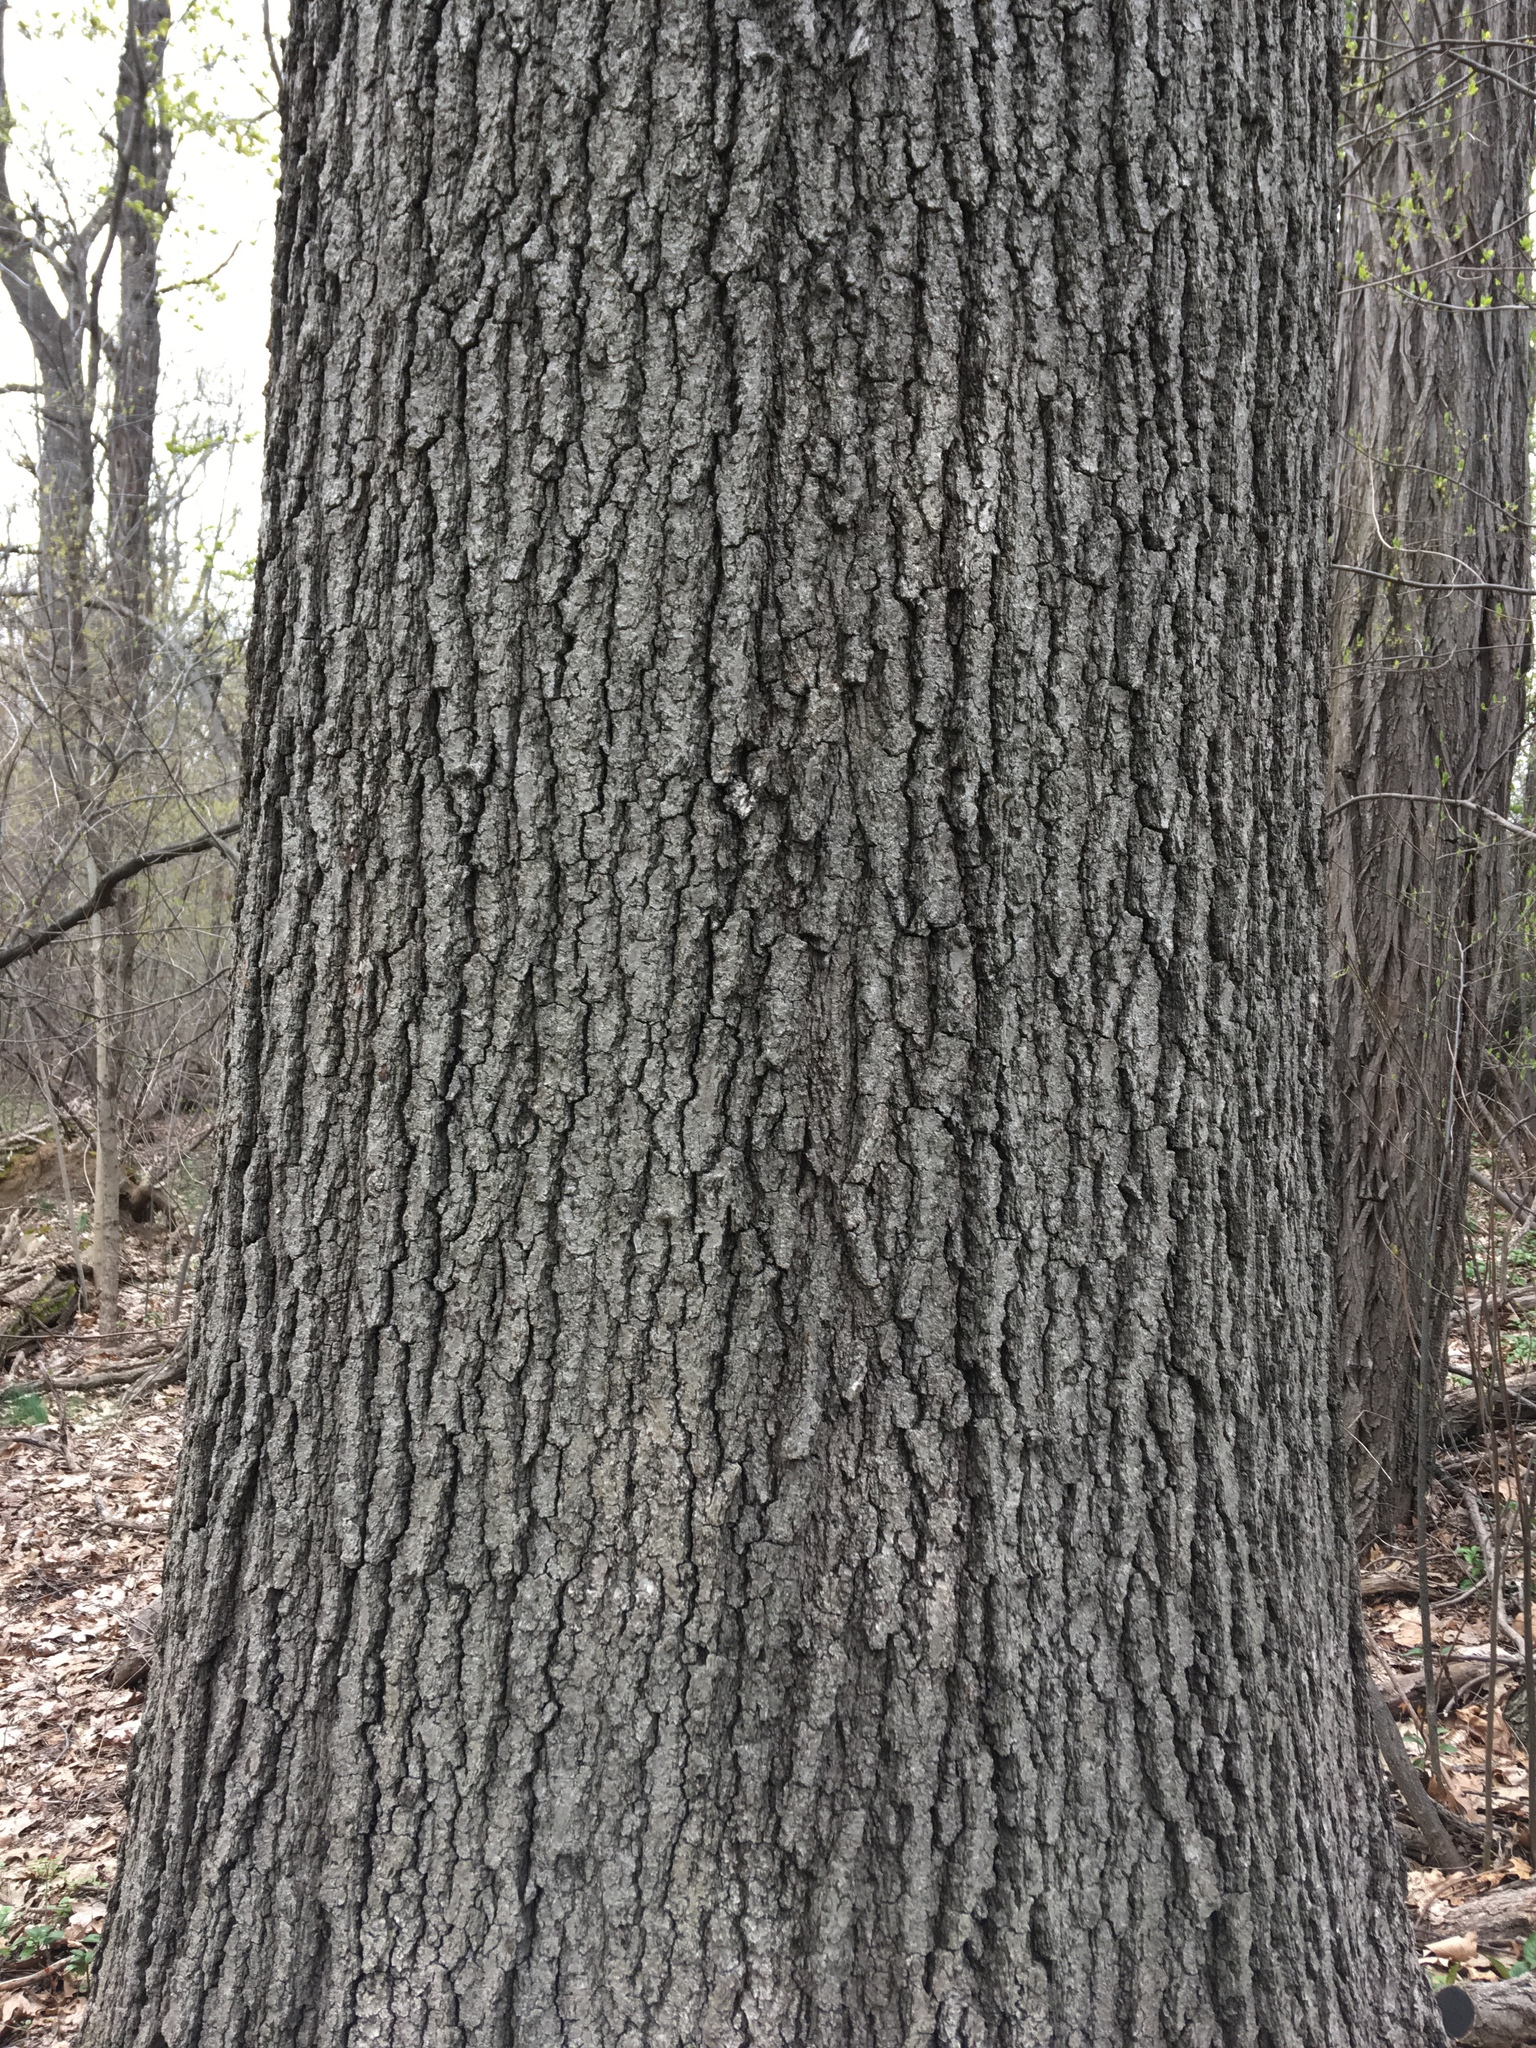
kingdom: Plantae
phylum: Tracheophyta
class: Magnoliopsida
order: Fagales
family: Fagaceae
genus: Quercus
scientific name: Quercus velutina
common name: Black oak
